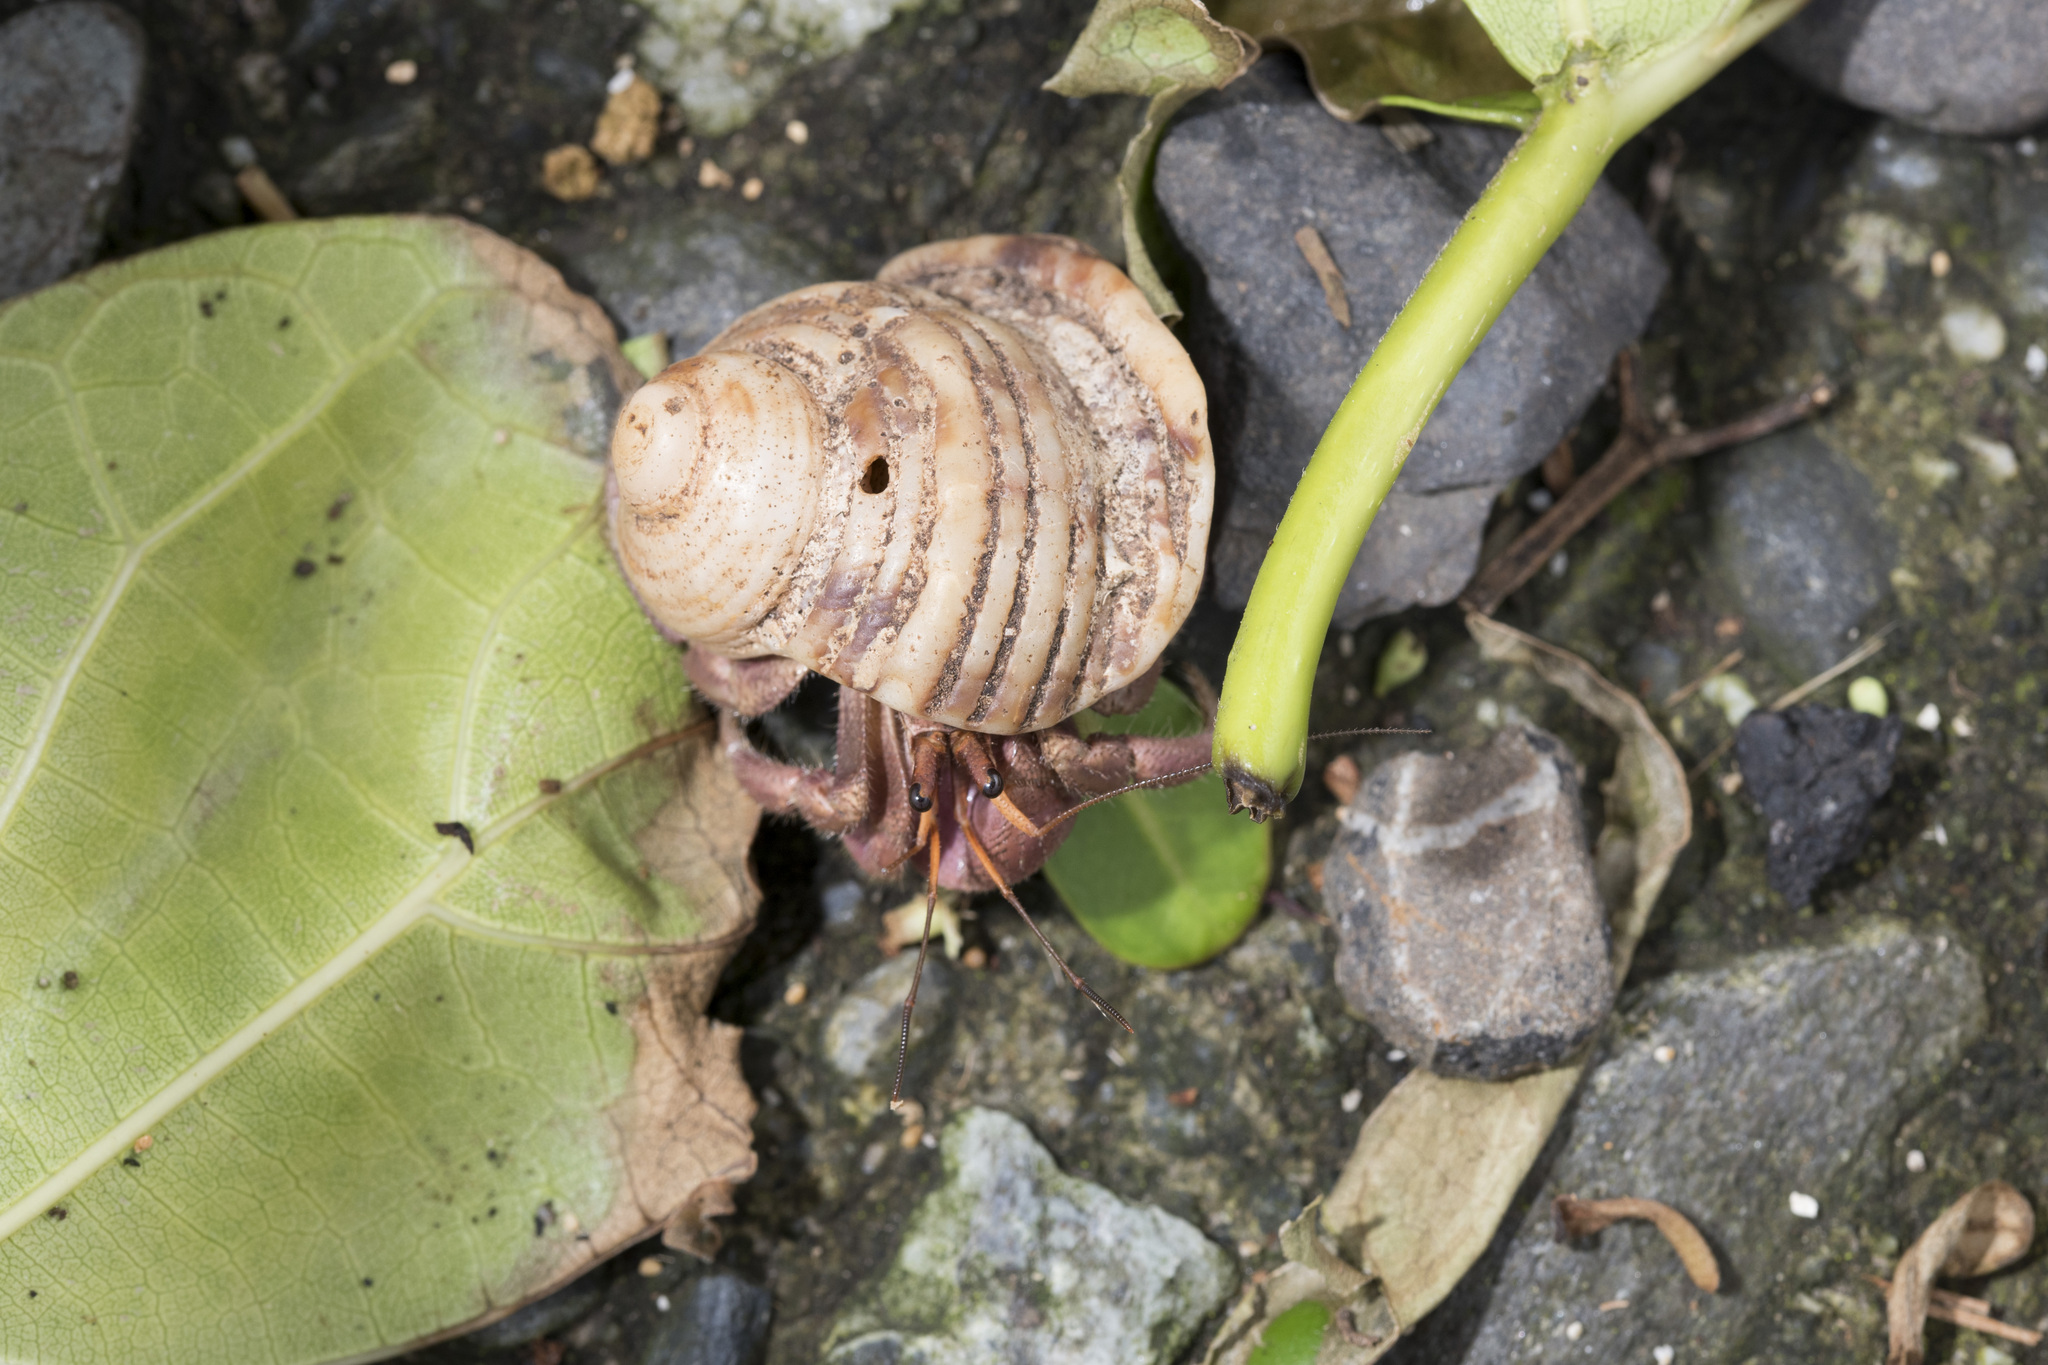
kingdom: Animalia
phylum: Arthropoda
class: Malacostraca
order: Decapoda
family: Coenobitidae
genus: Coenobita
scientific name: Coenobita brevimanus
